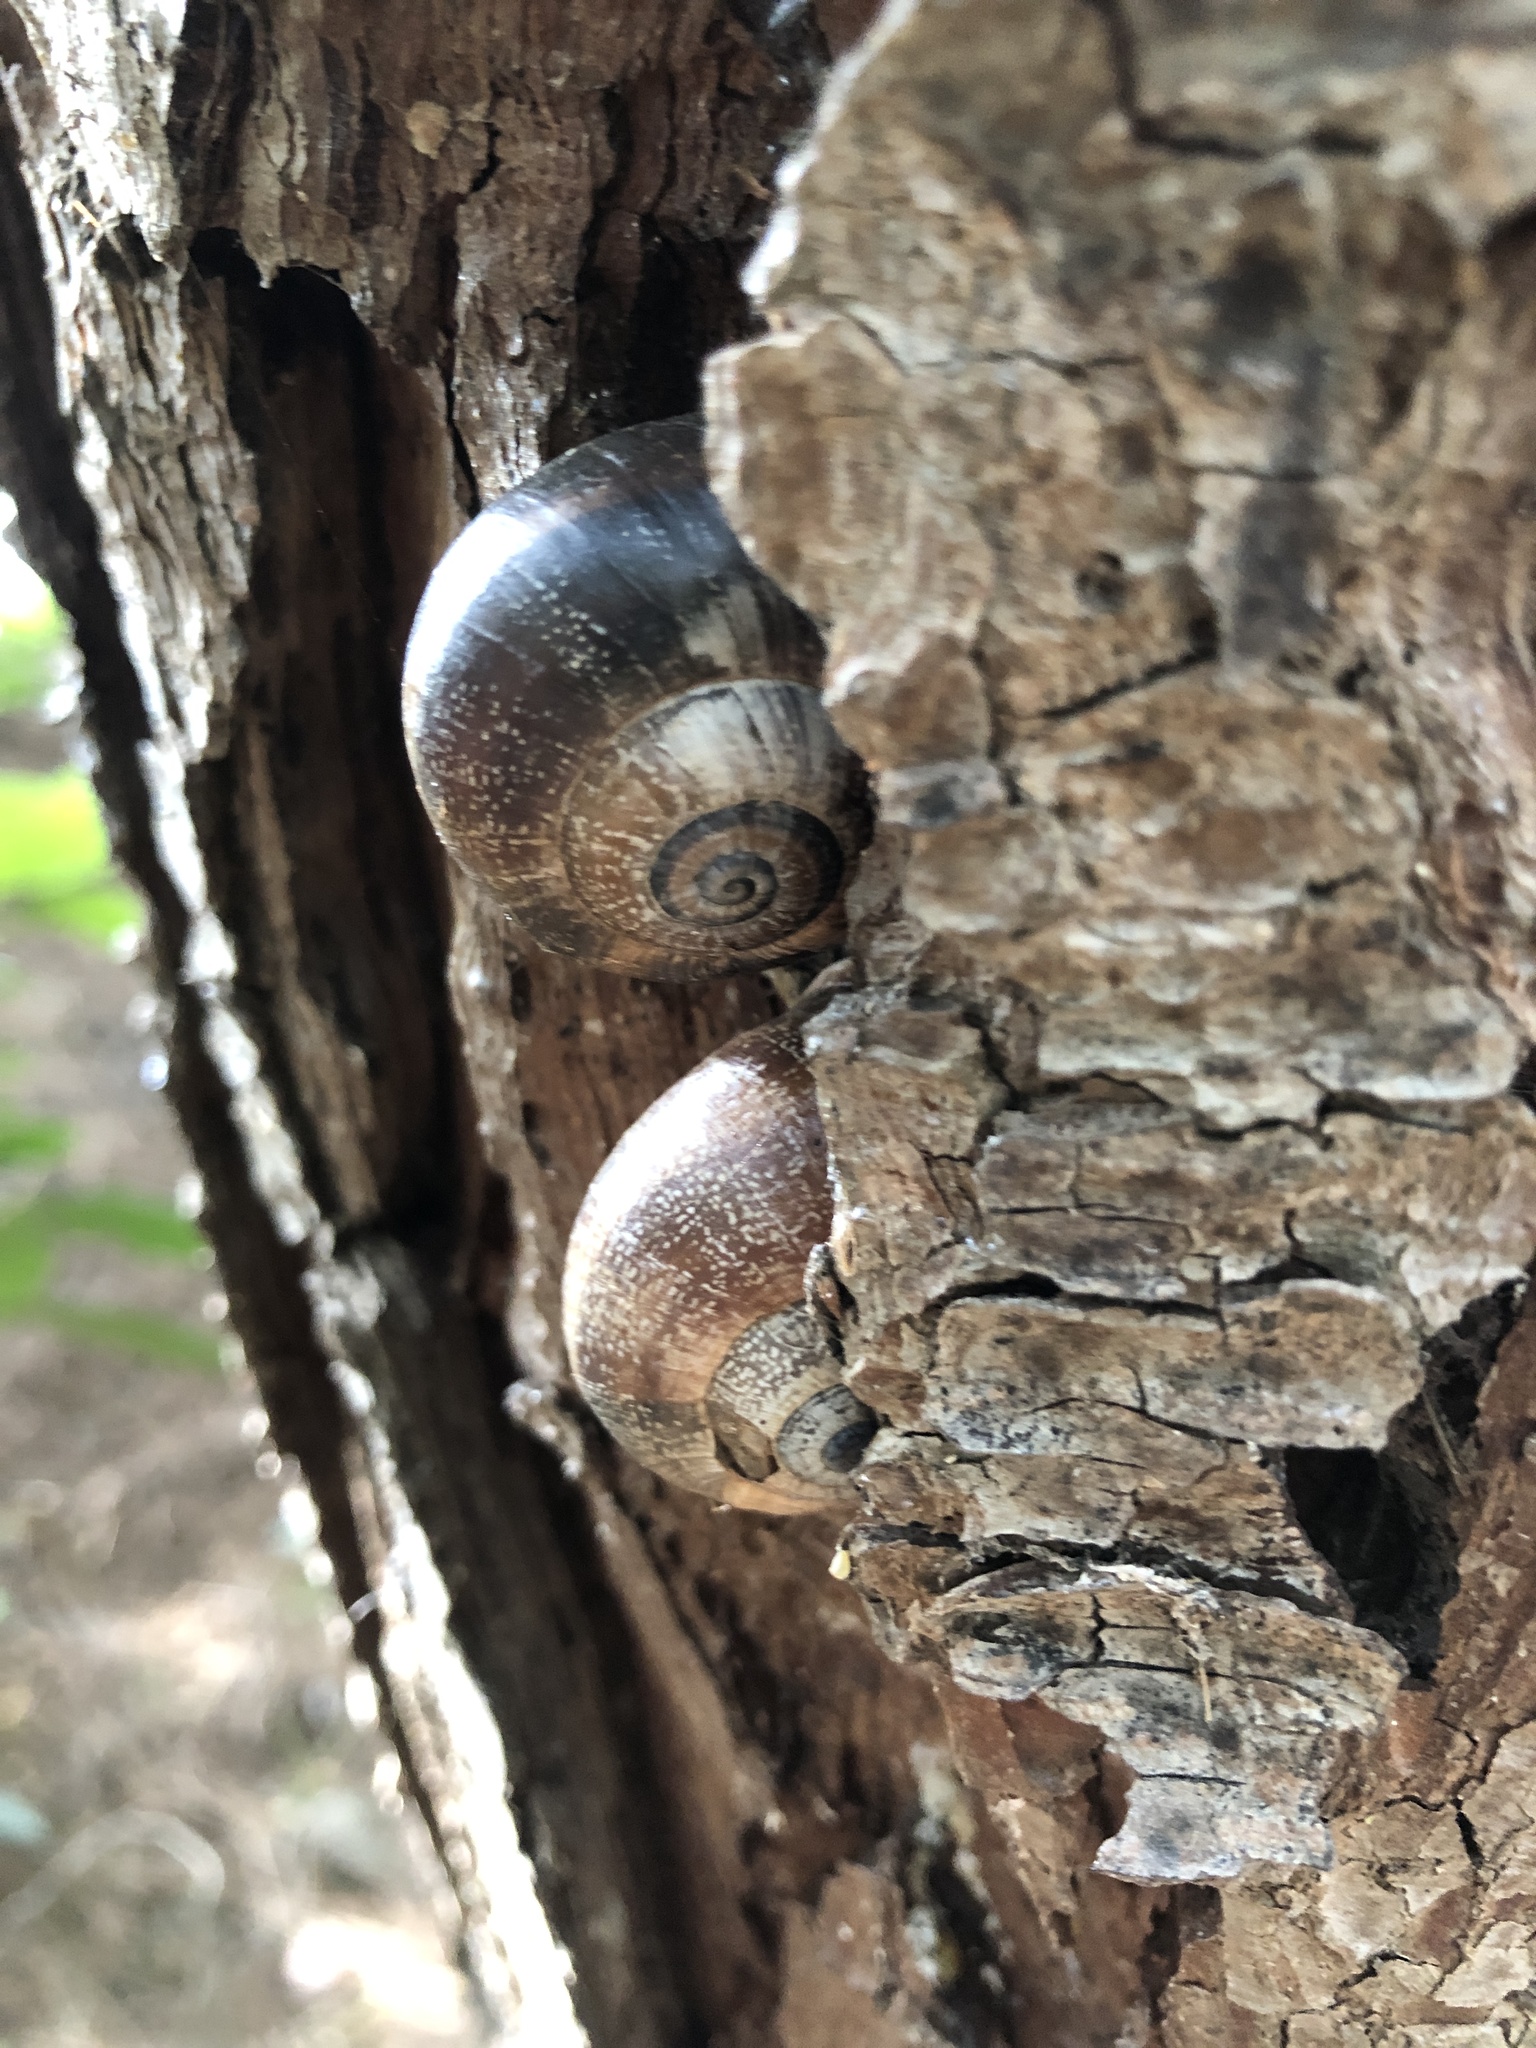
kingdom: Animalia
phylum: Mollusca
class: Gastropoda
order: Stylommatophora
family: Helicidae
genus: Otala
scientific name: Otala punctata
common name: Milk snail
